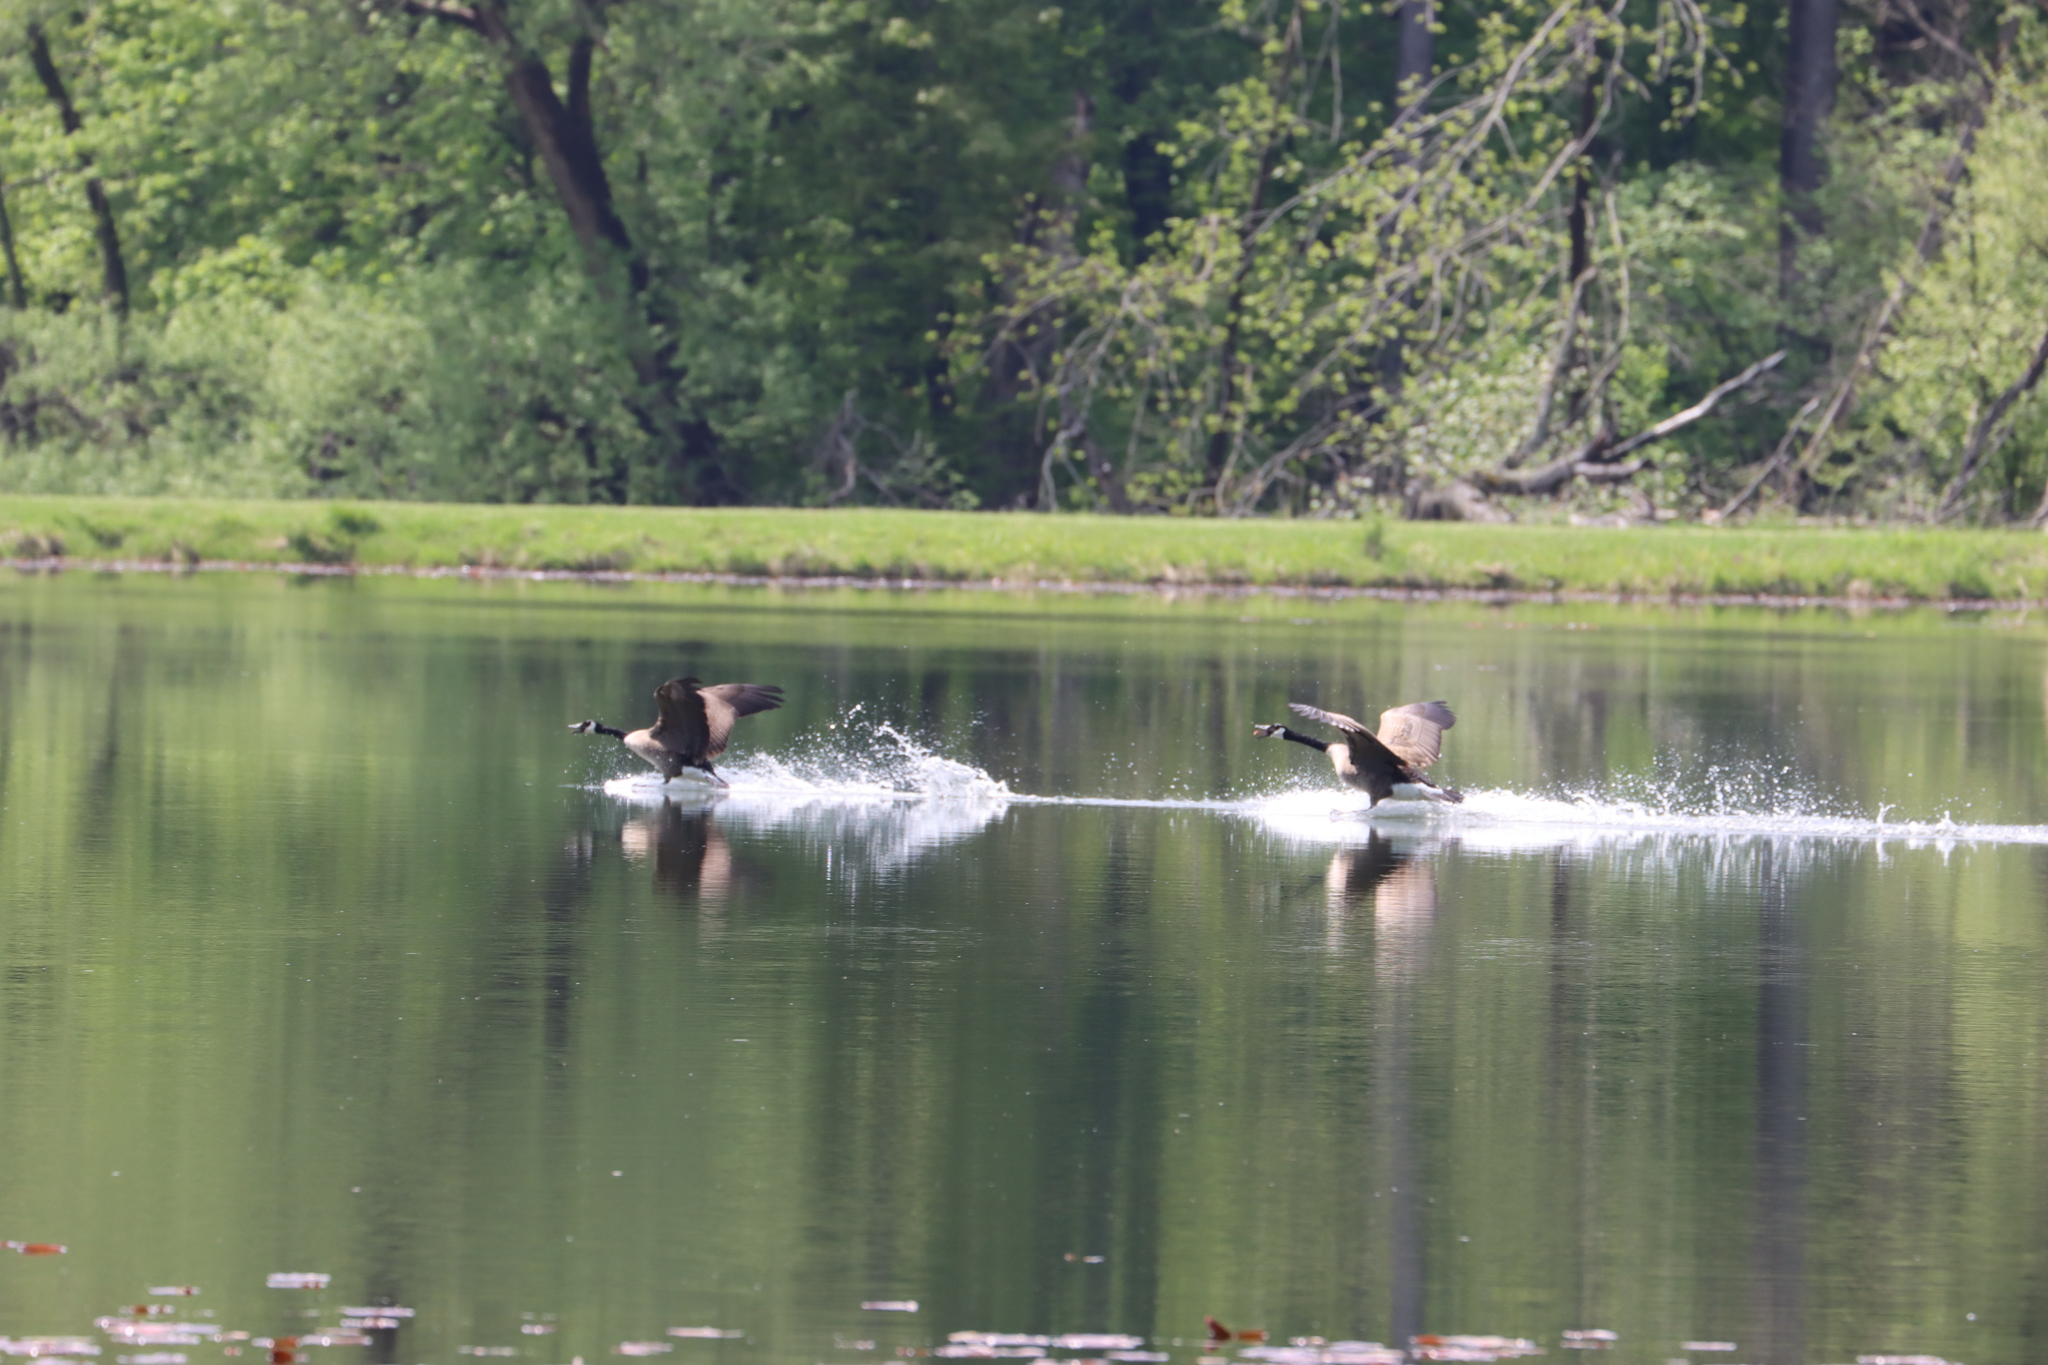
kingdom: Animalia
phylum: Chordata
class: Aves
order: Anseriformes
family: Anatidae
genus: Branta
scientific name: Branta canadensis
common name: Canada goose
